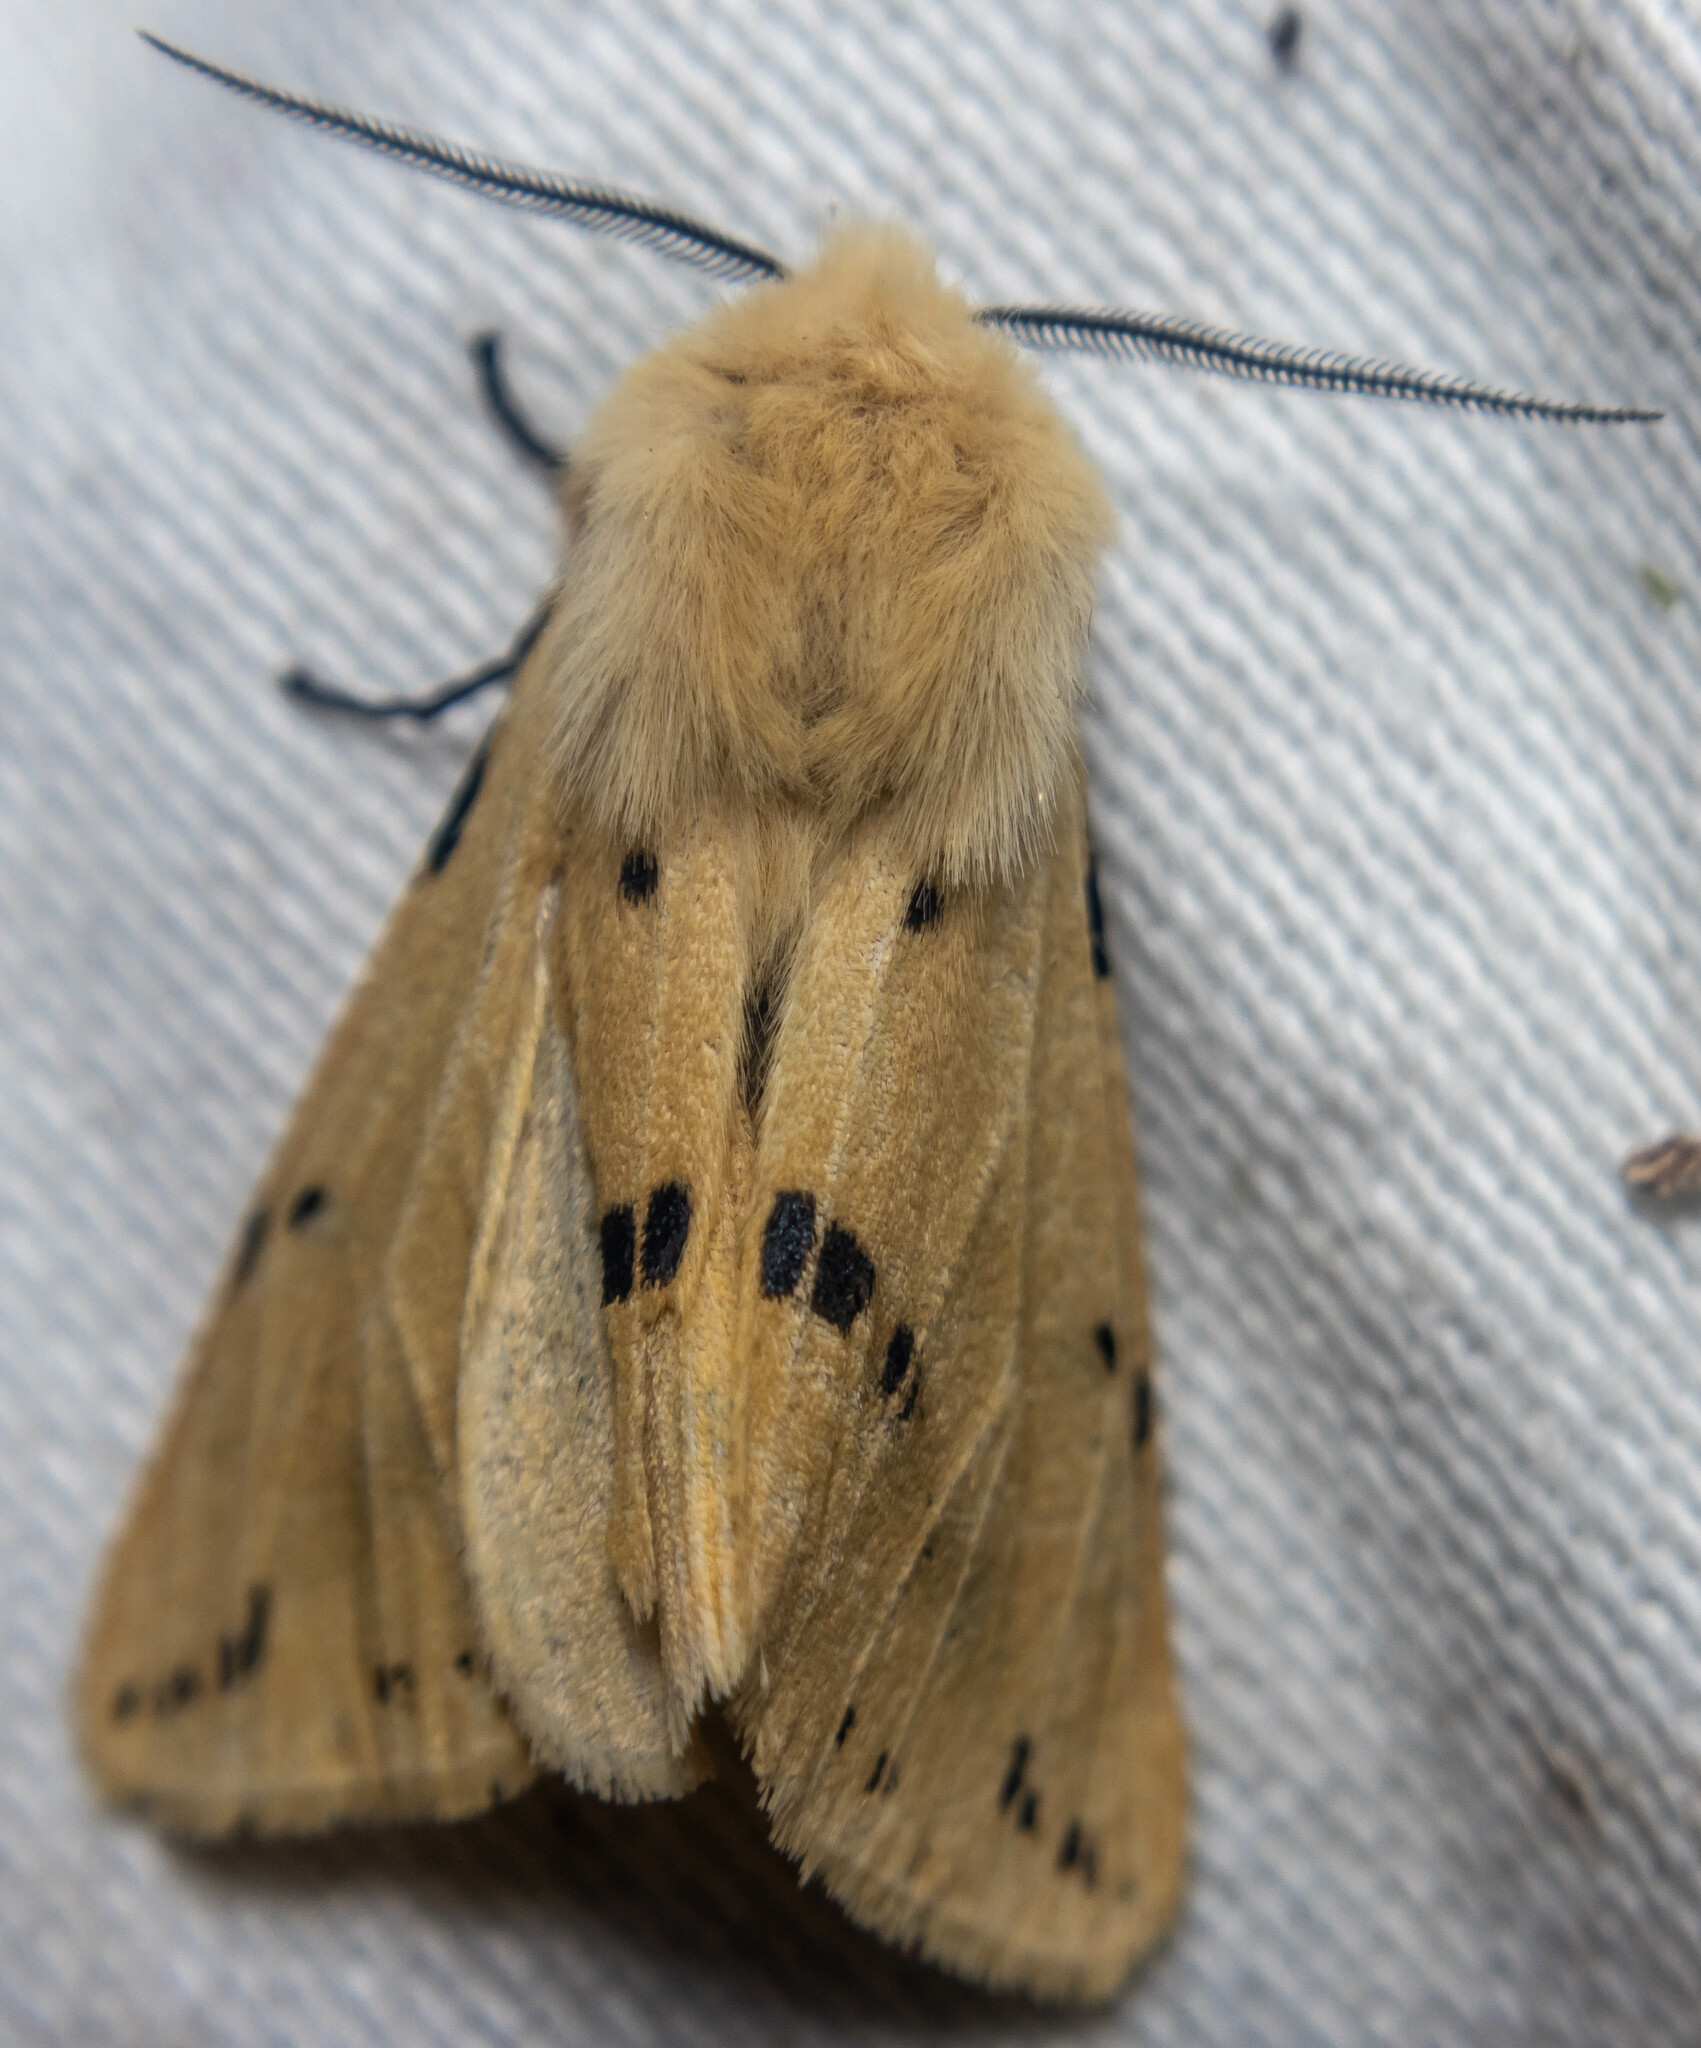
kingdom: Animalia
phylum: Arthropoda
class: Insecta
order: Lepidoptera
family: Erebidae
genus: Spilarctia
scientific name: Spilarctia lutea
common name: Buff ermine
